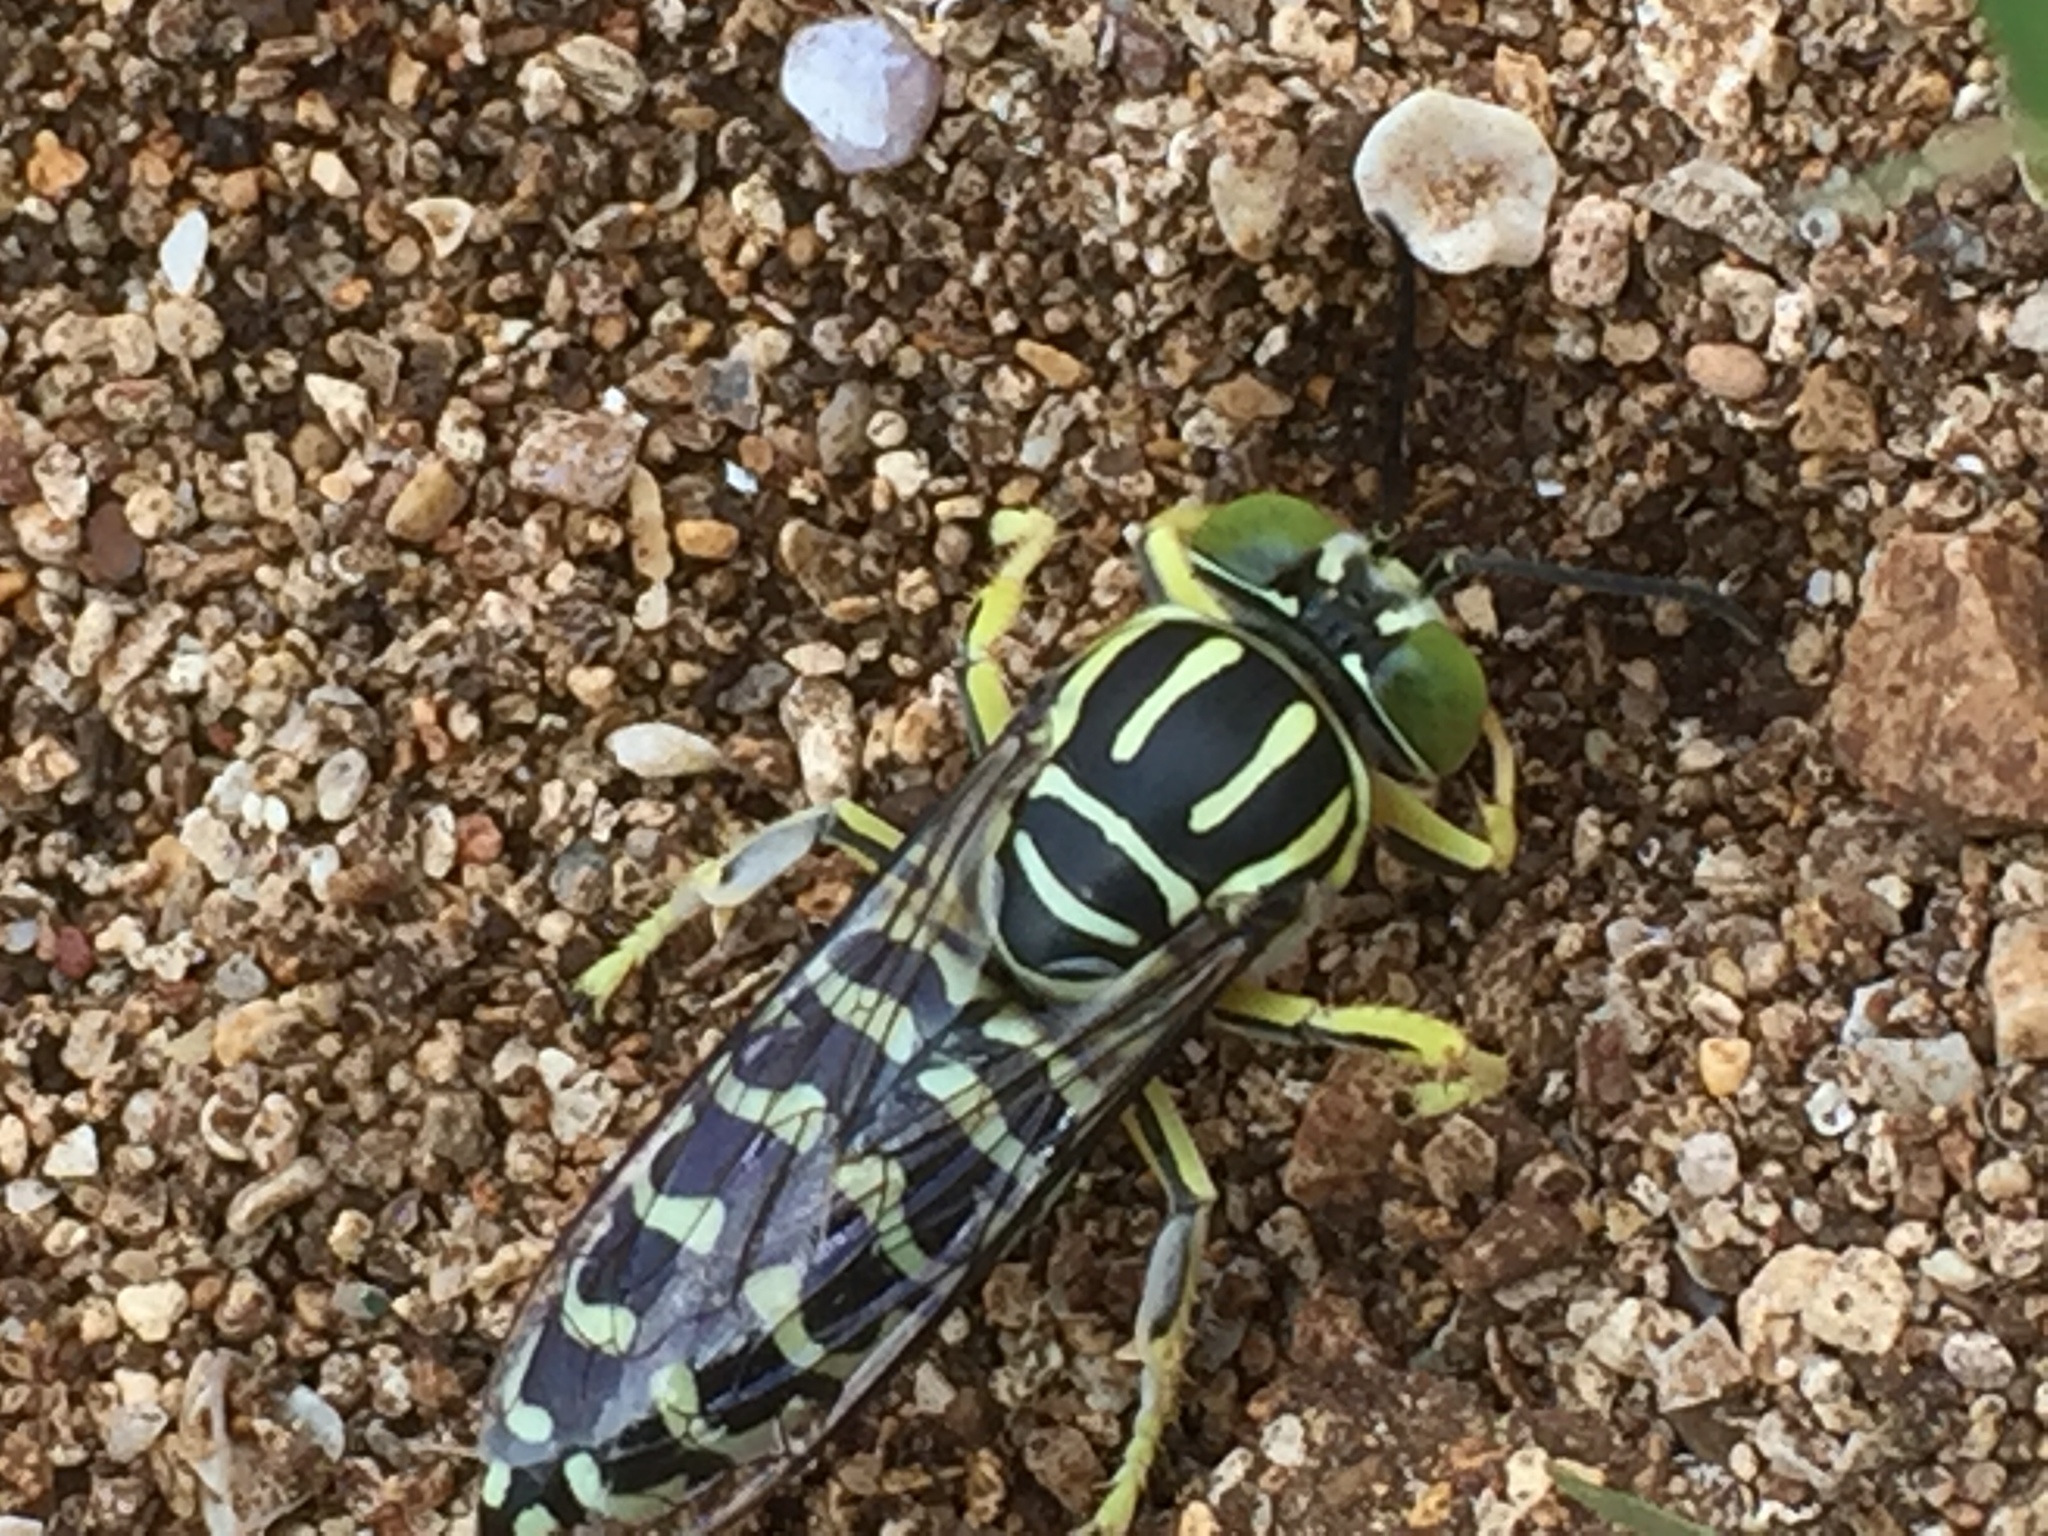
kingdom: Animalia
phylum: Arthropoda
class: Insecta
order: Hymenoptera
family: Crabronidae
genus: Stictia
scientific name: Stictia signata
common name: Sand wasp
